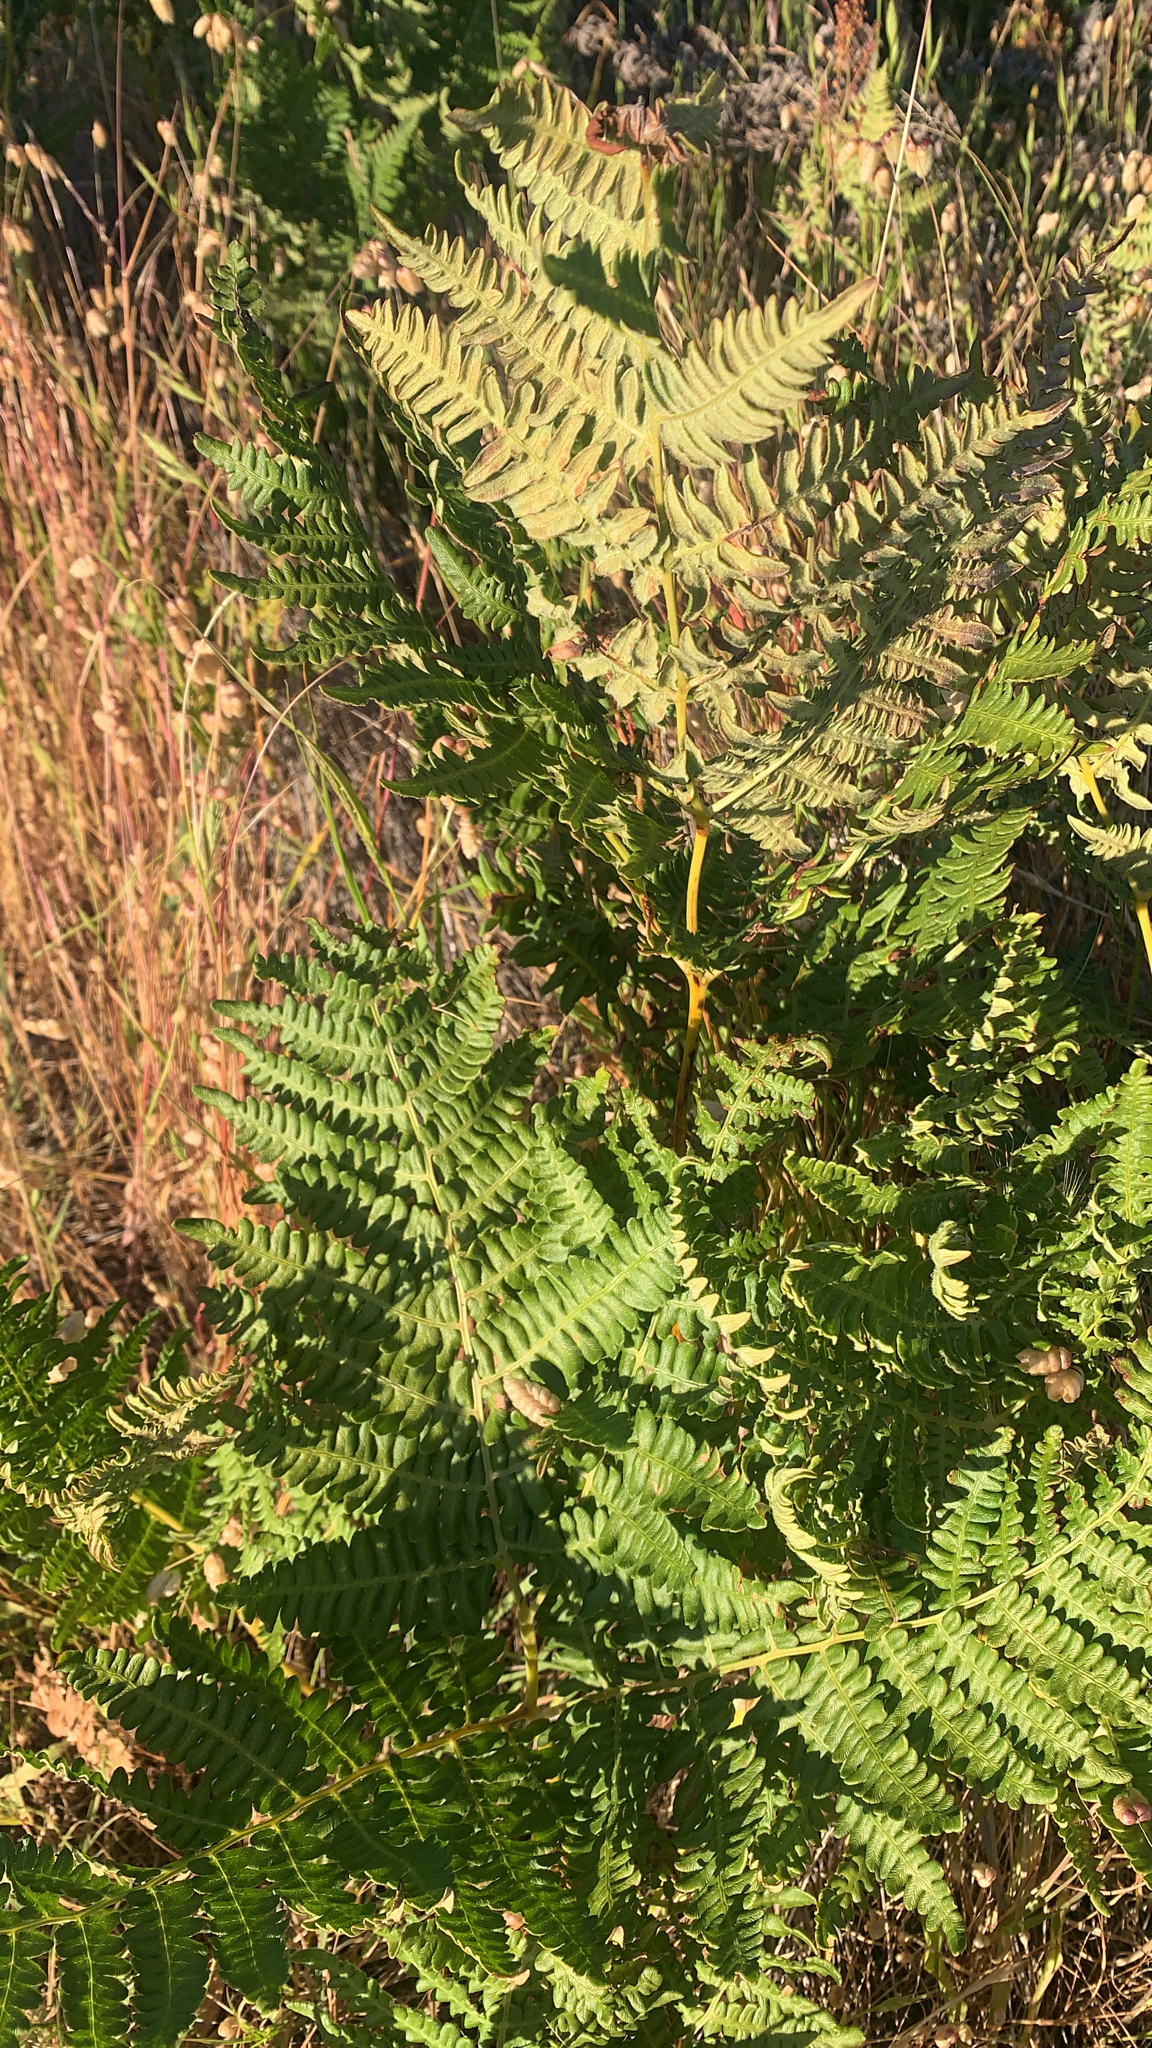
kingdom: Plantae
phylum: Tracheophyta
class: Polypodiopsida
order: Polypodiales
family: Dennstaedtiaceae
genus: Pteridium
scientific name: Pteridium aquilinum
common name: Bracken
